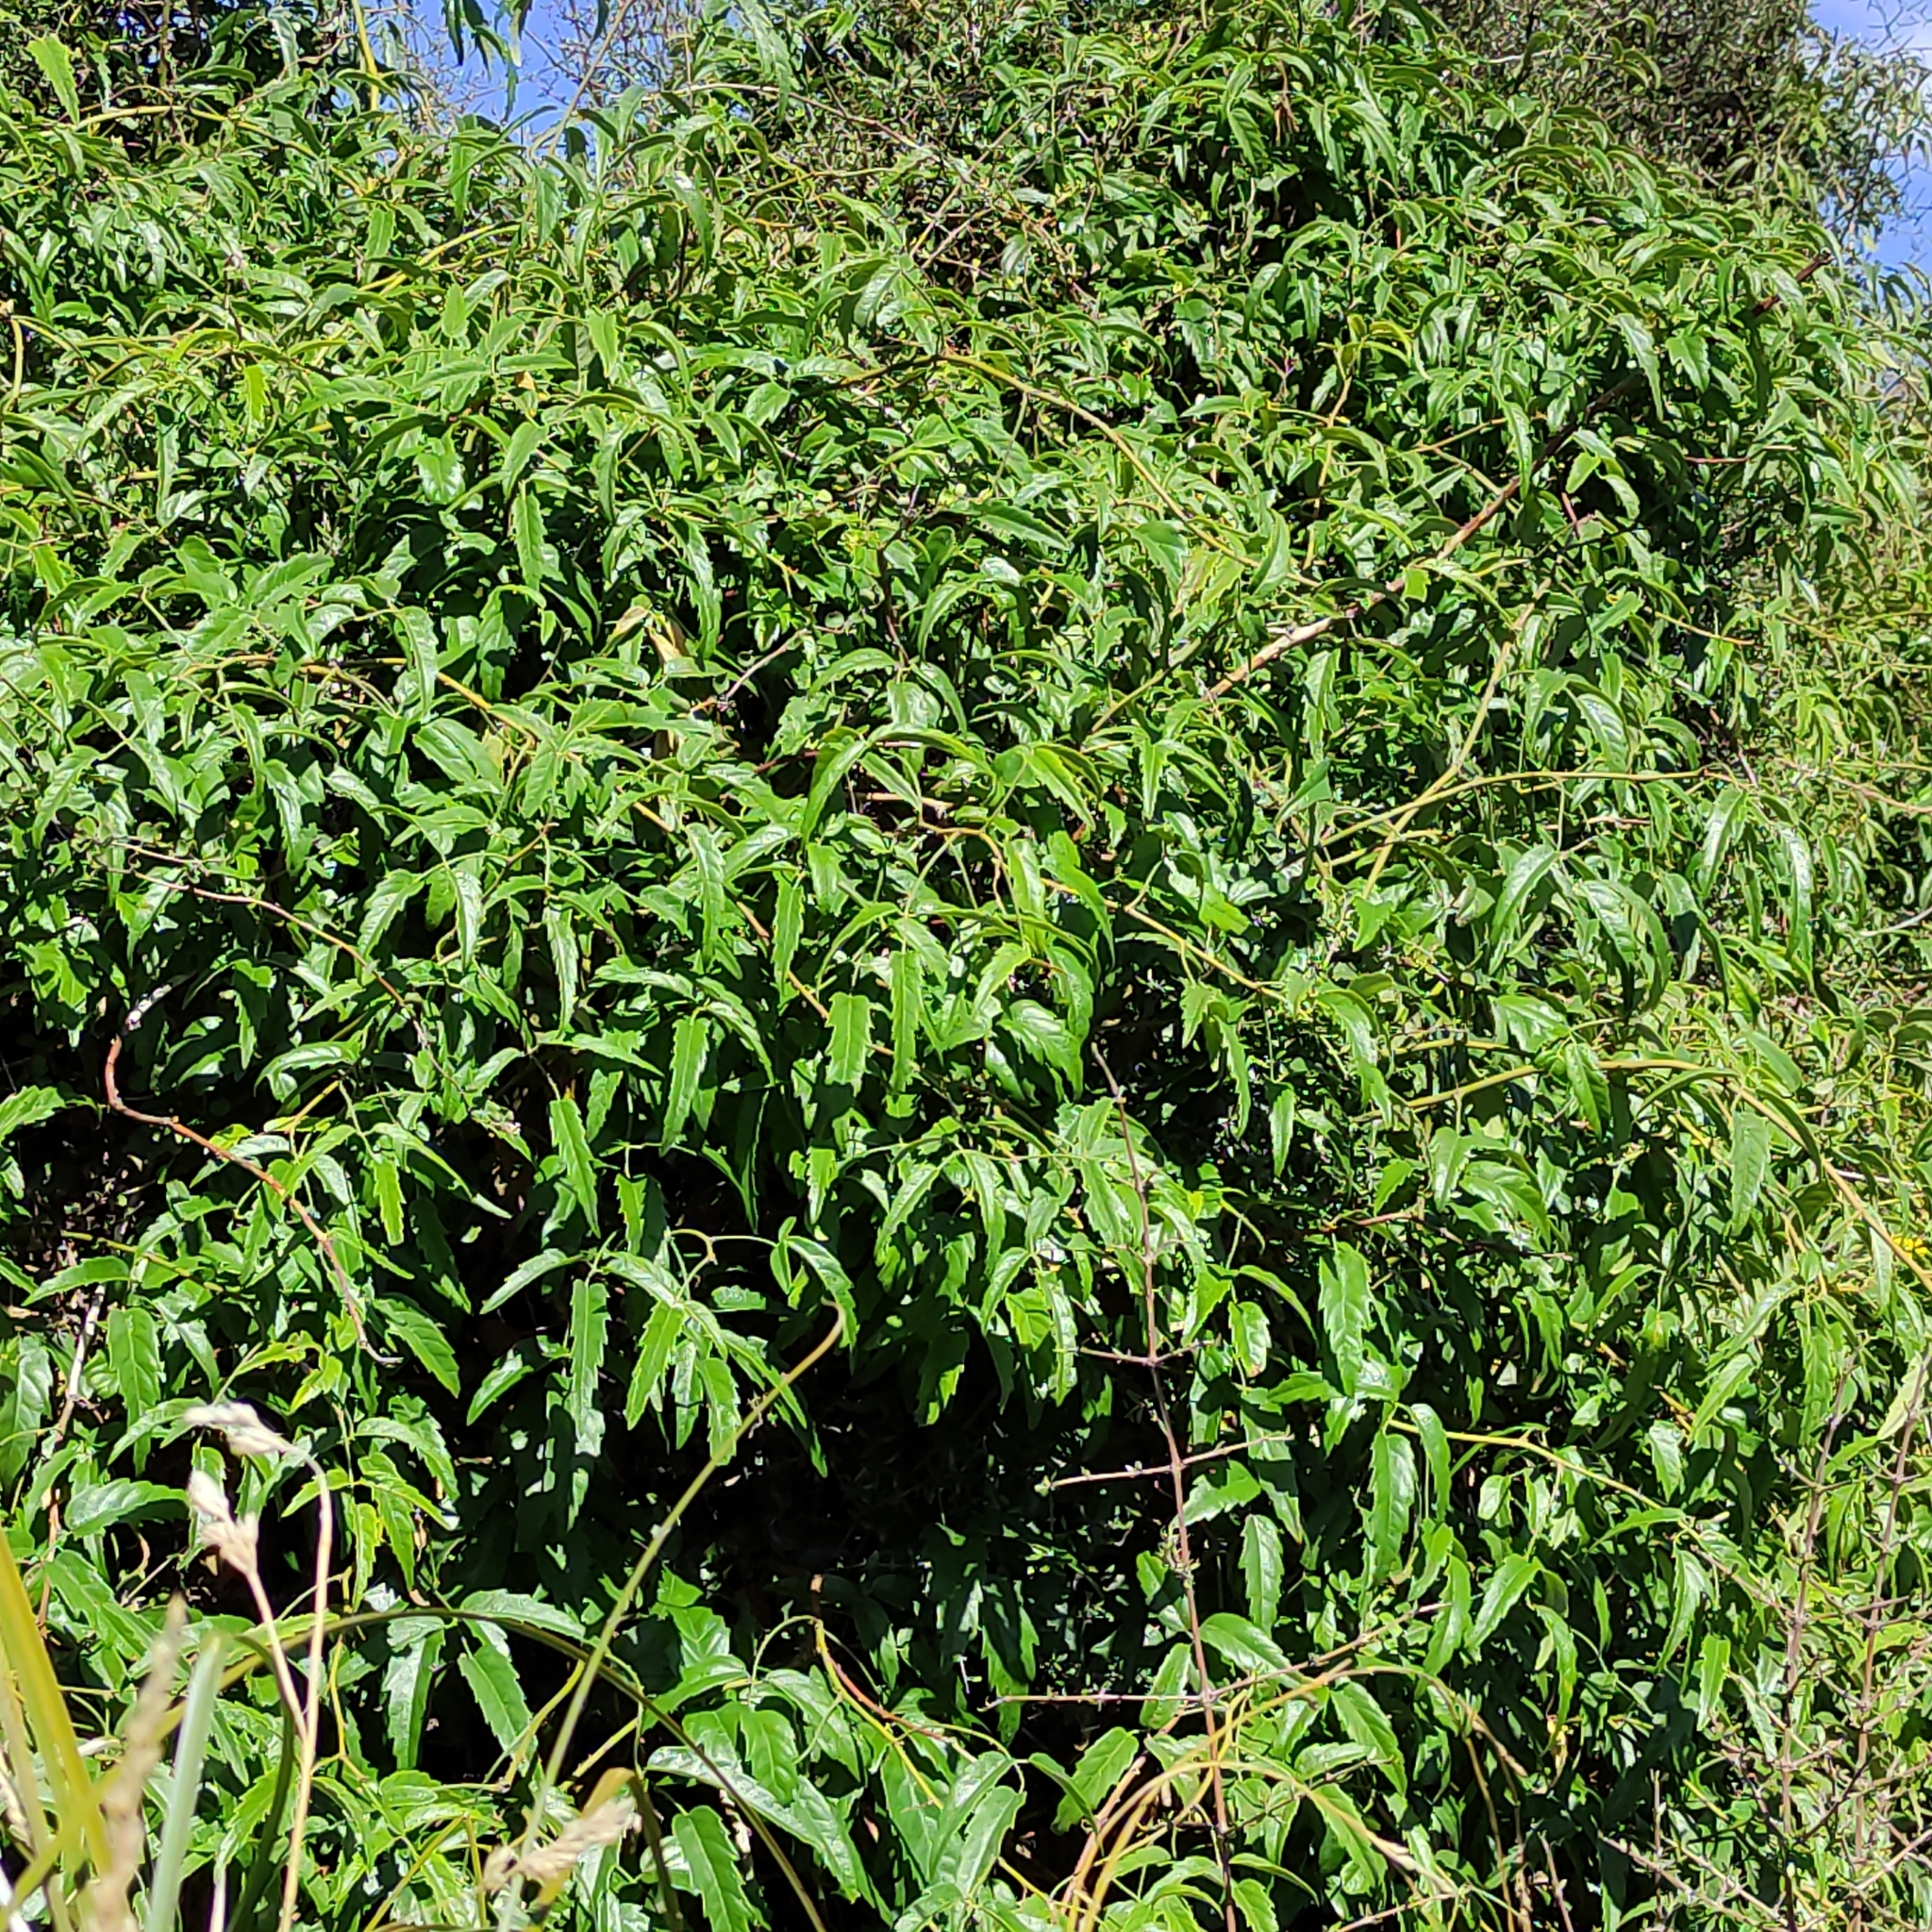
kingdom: Plantae
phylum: Tracheophyta
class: Magnoliopsida
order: Rosales
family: Rosaceae
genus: Rubus
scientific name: Rubus schmidelioides
